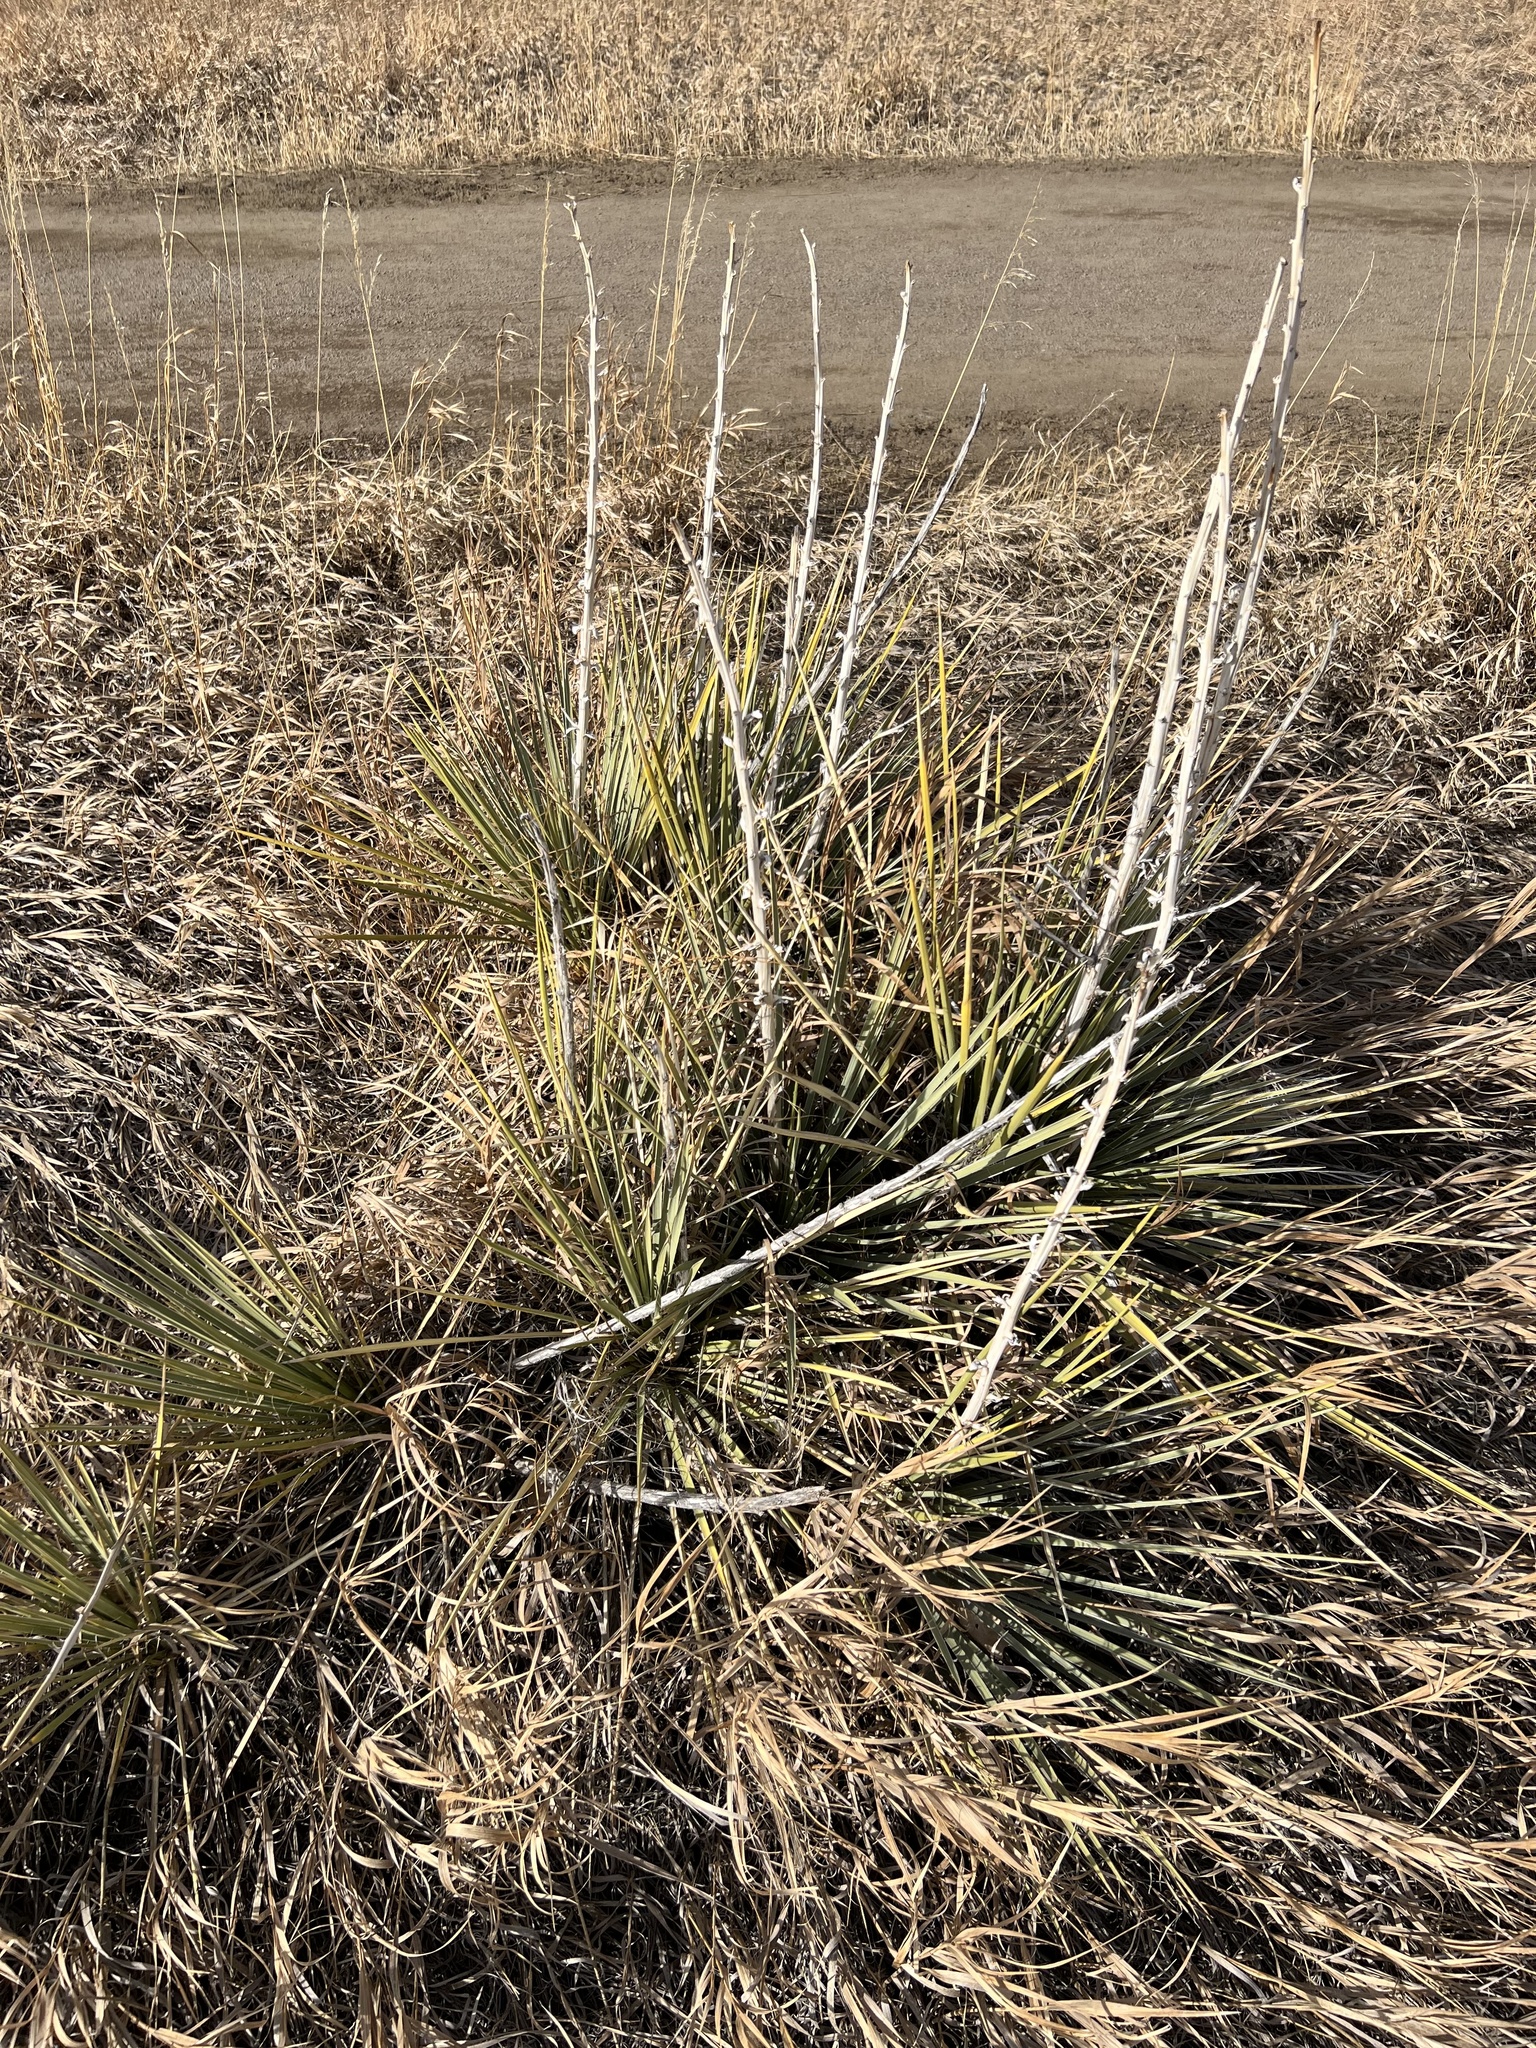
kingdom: Plantae
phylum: Tracheophyta
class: Liliopsida
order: Asparagales
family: Asparagaceae
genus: Yucca
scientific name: Yucca glauca
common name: Great plains yucca
